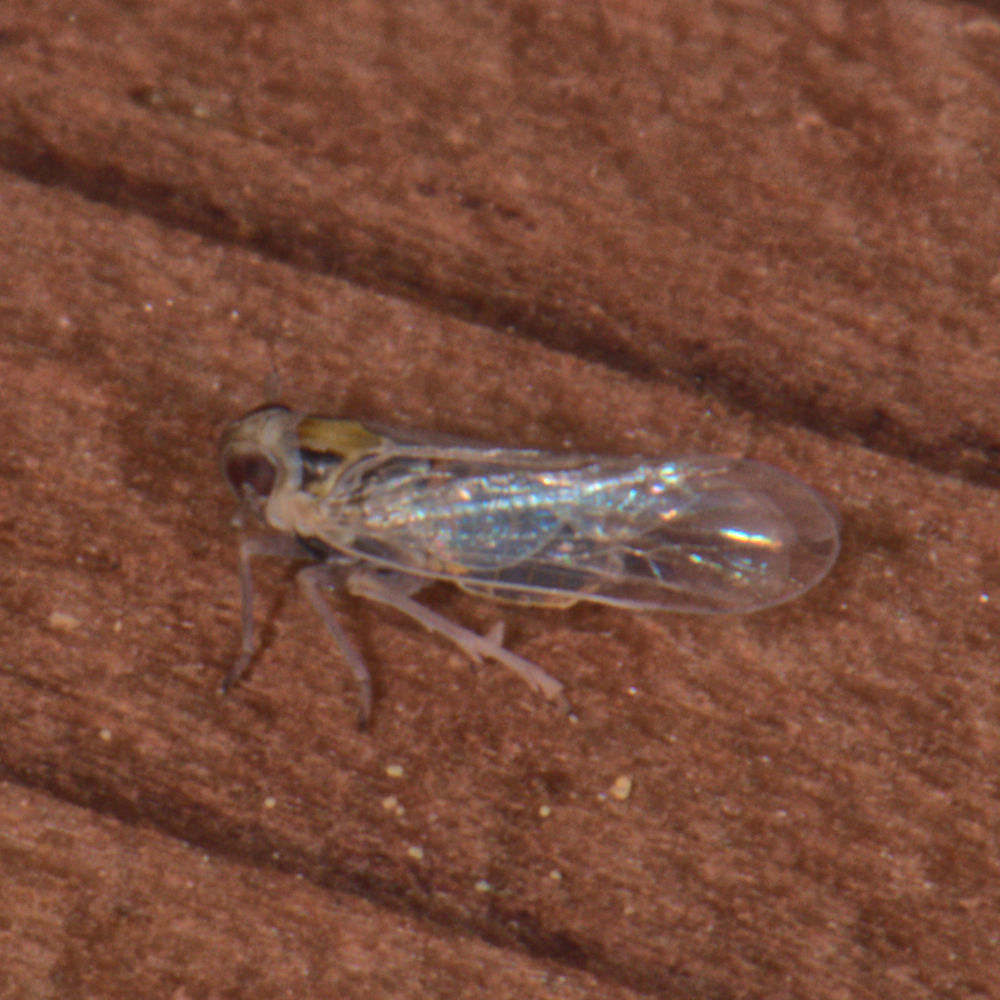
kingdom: Animalia
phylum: Arthropoda
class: Insecta
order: Hemiptera
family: Delphacidae
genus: Muirodelphax
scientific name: Muirodelphax arvensis
